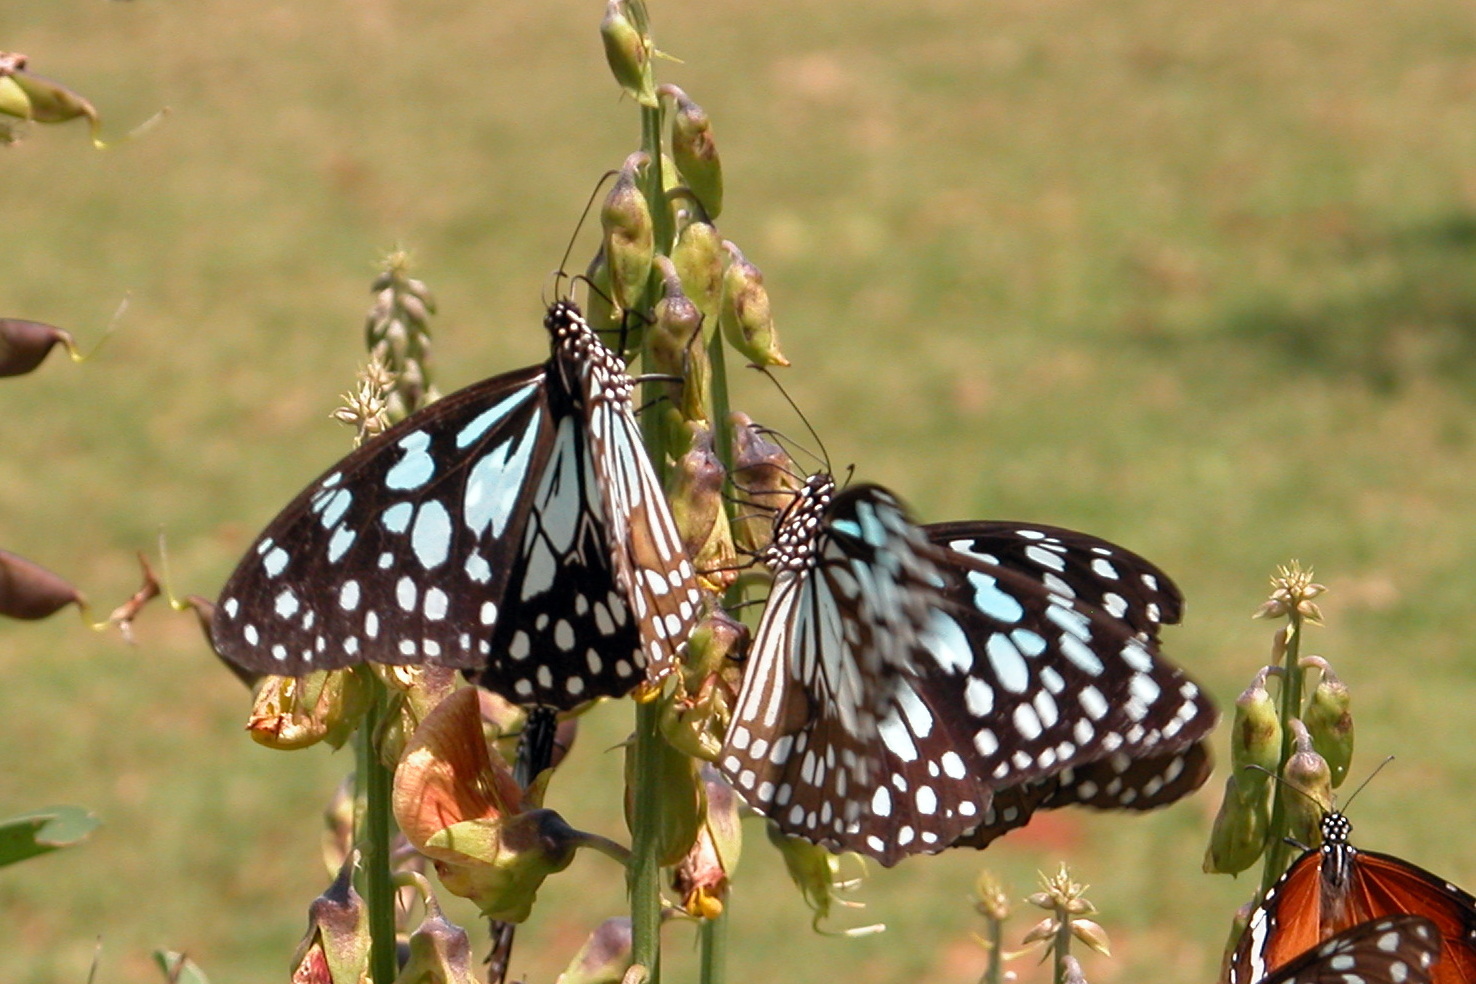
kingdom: Animalia
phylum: Arthropoda
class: Insecta
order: Lepidoptera
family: Nymphalidae
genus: Tirumala
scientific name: Tirumala limniace
